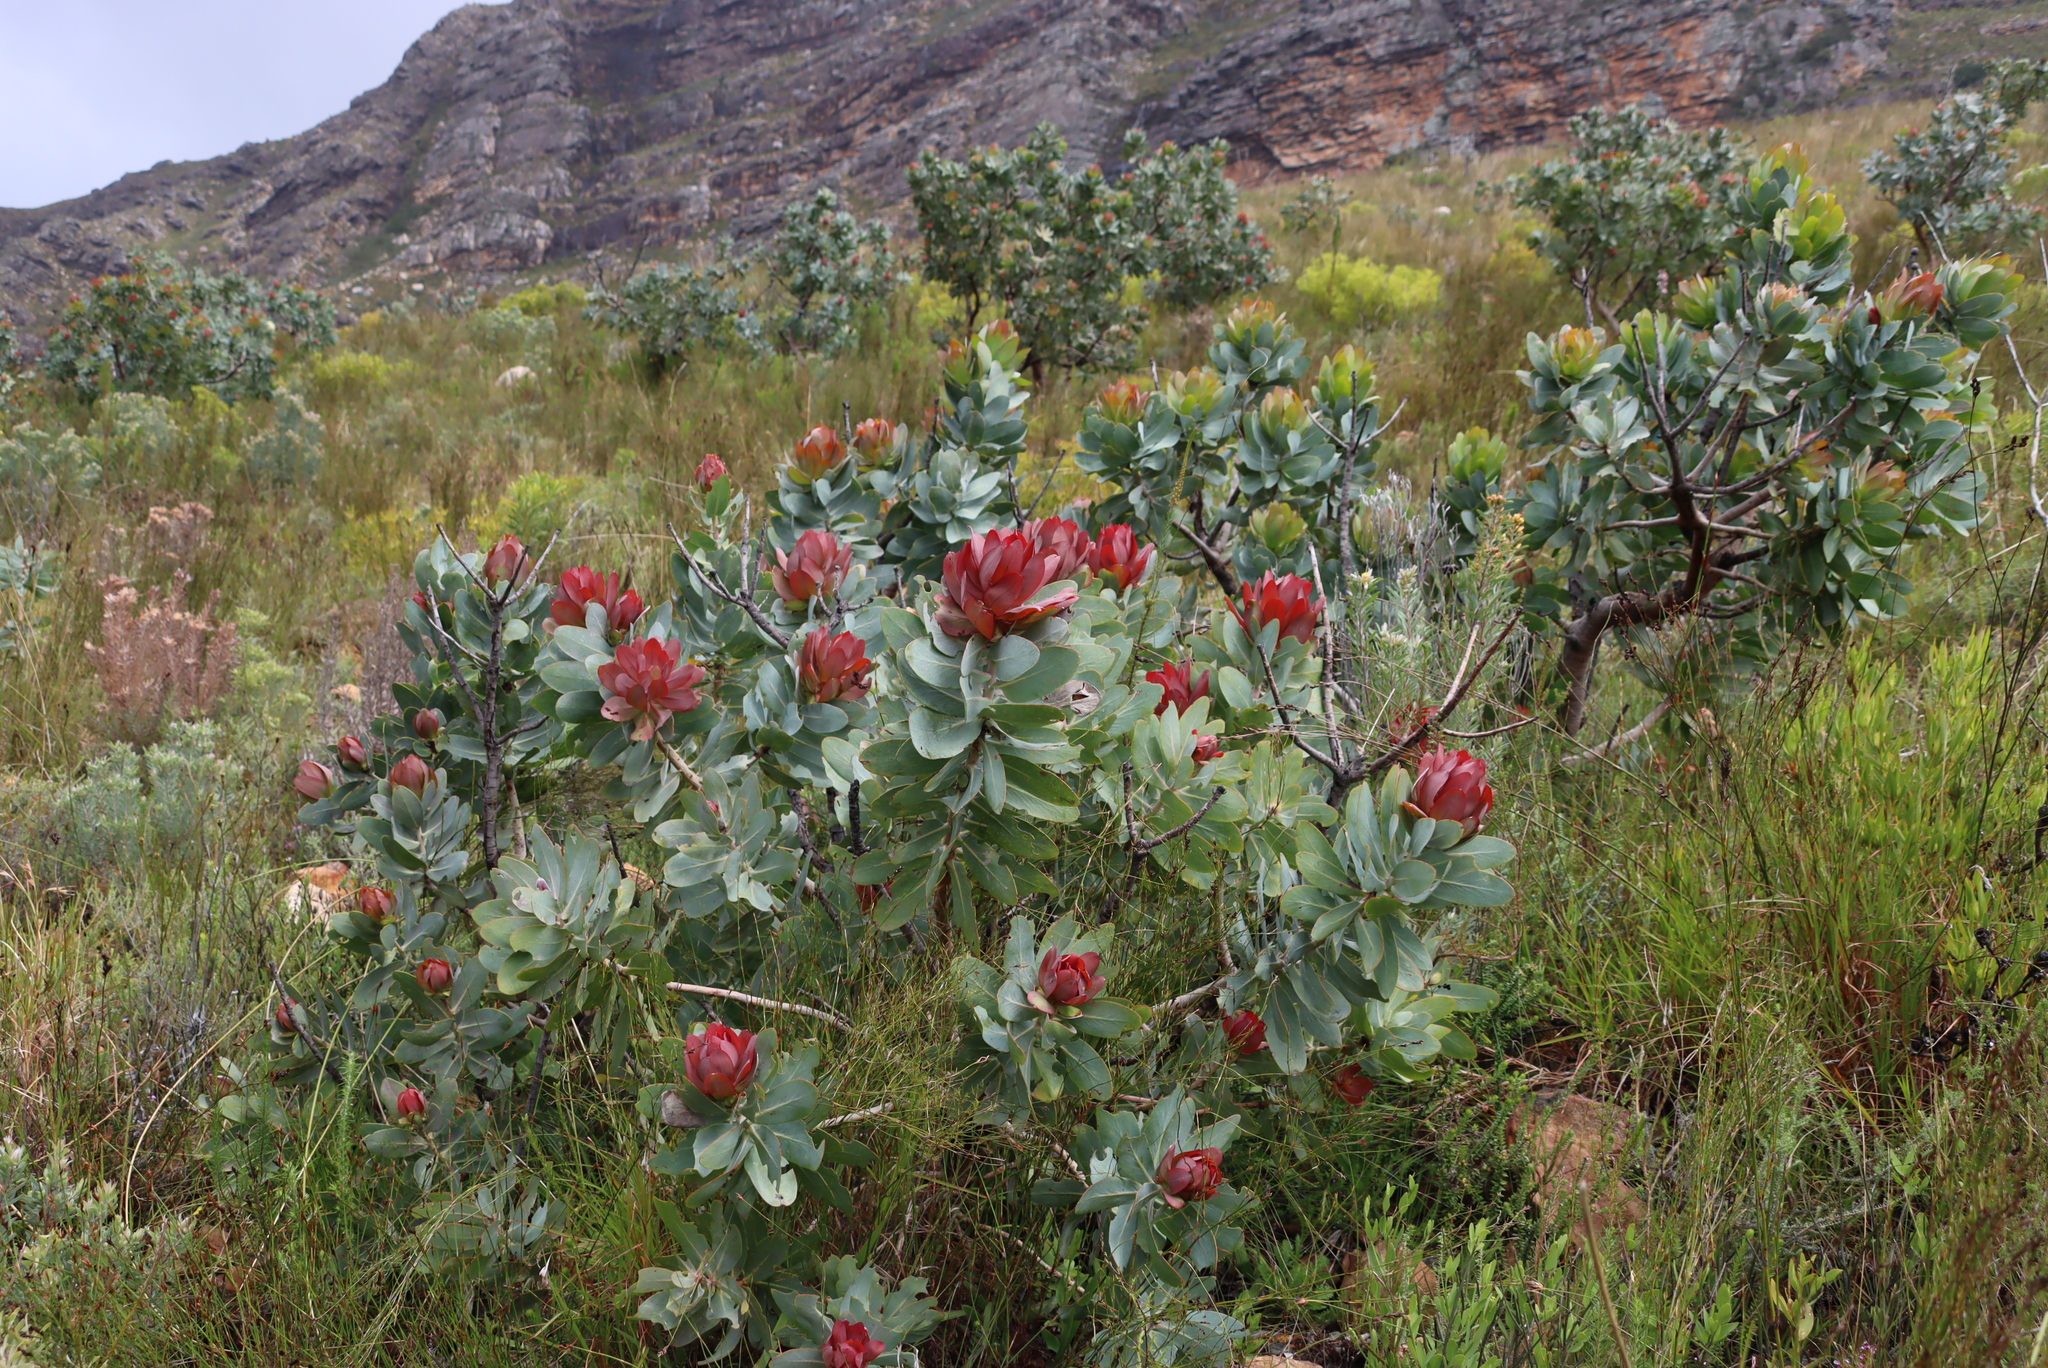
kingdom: Plantae
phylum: Tracheophyta
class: Magnoliopsida
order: Proteales
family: Proteaceae
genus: Protea
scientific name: Protea nitida
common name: Tree protea
